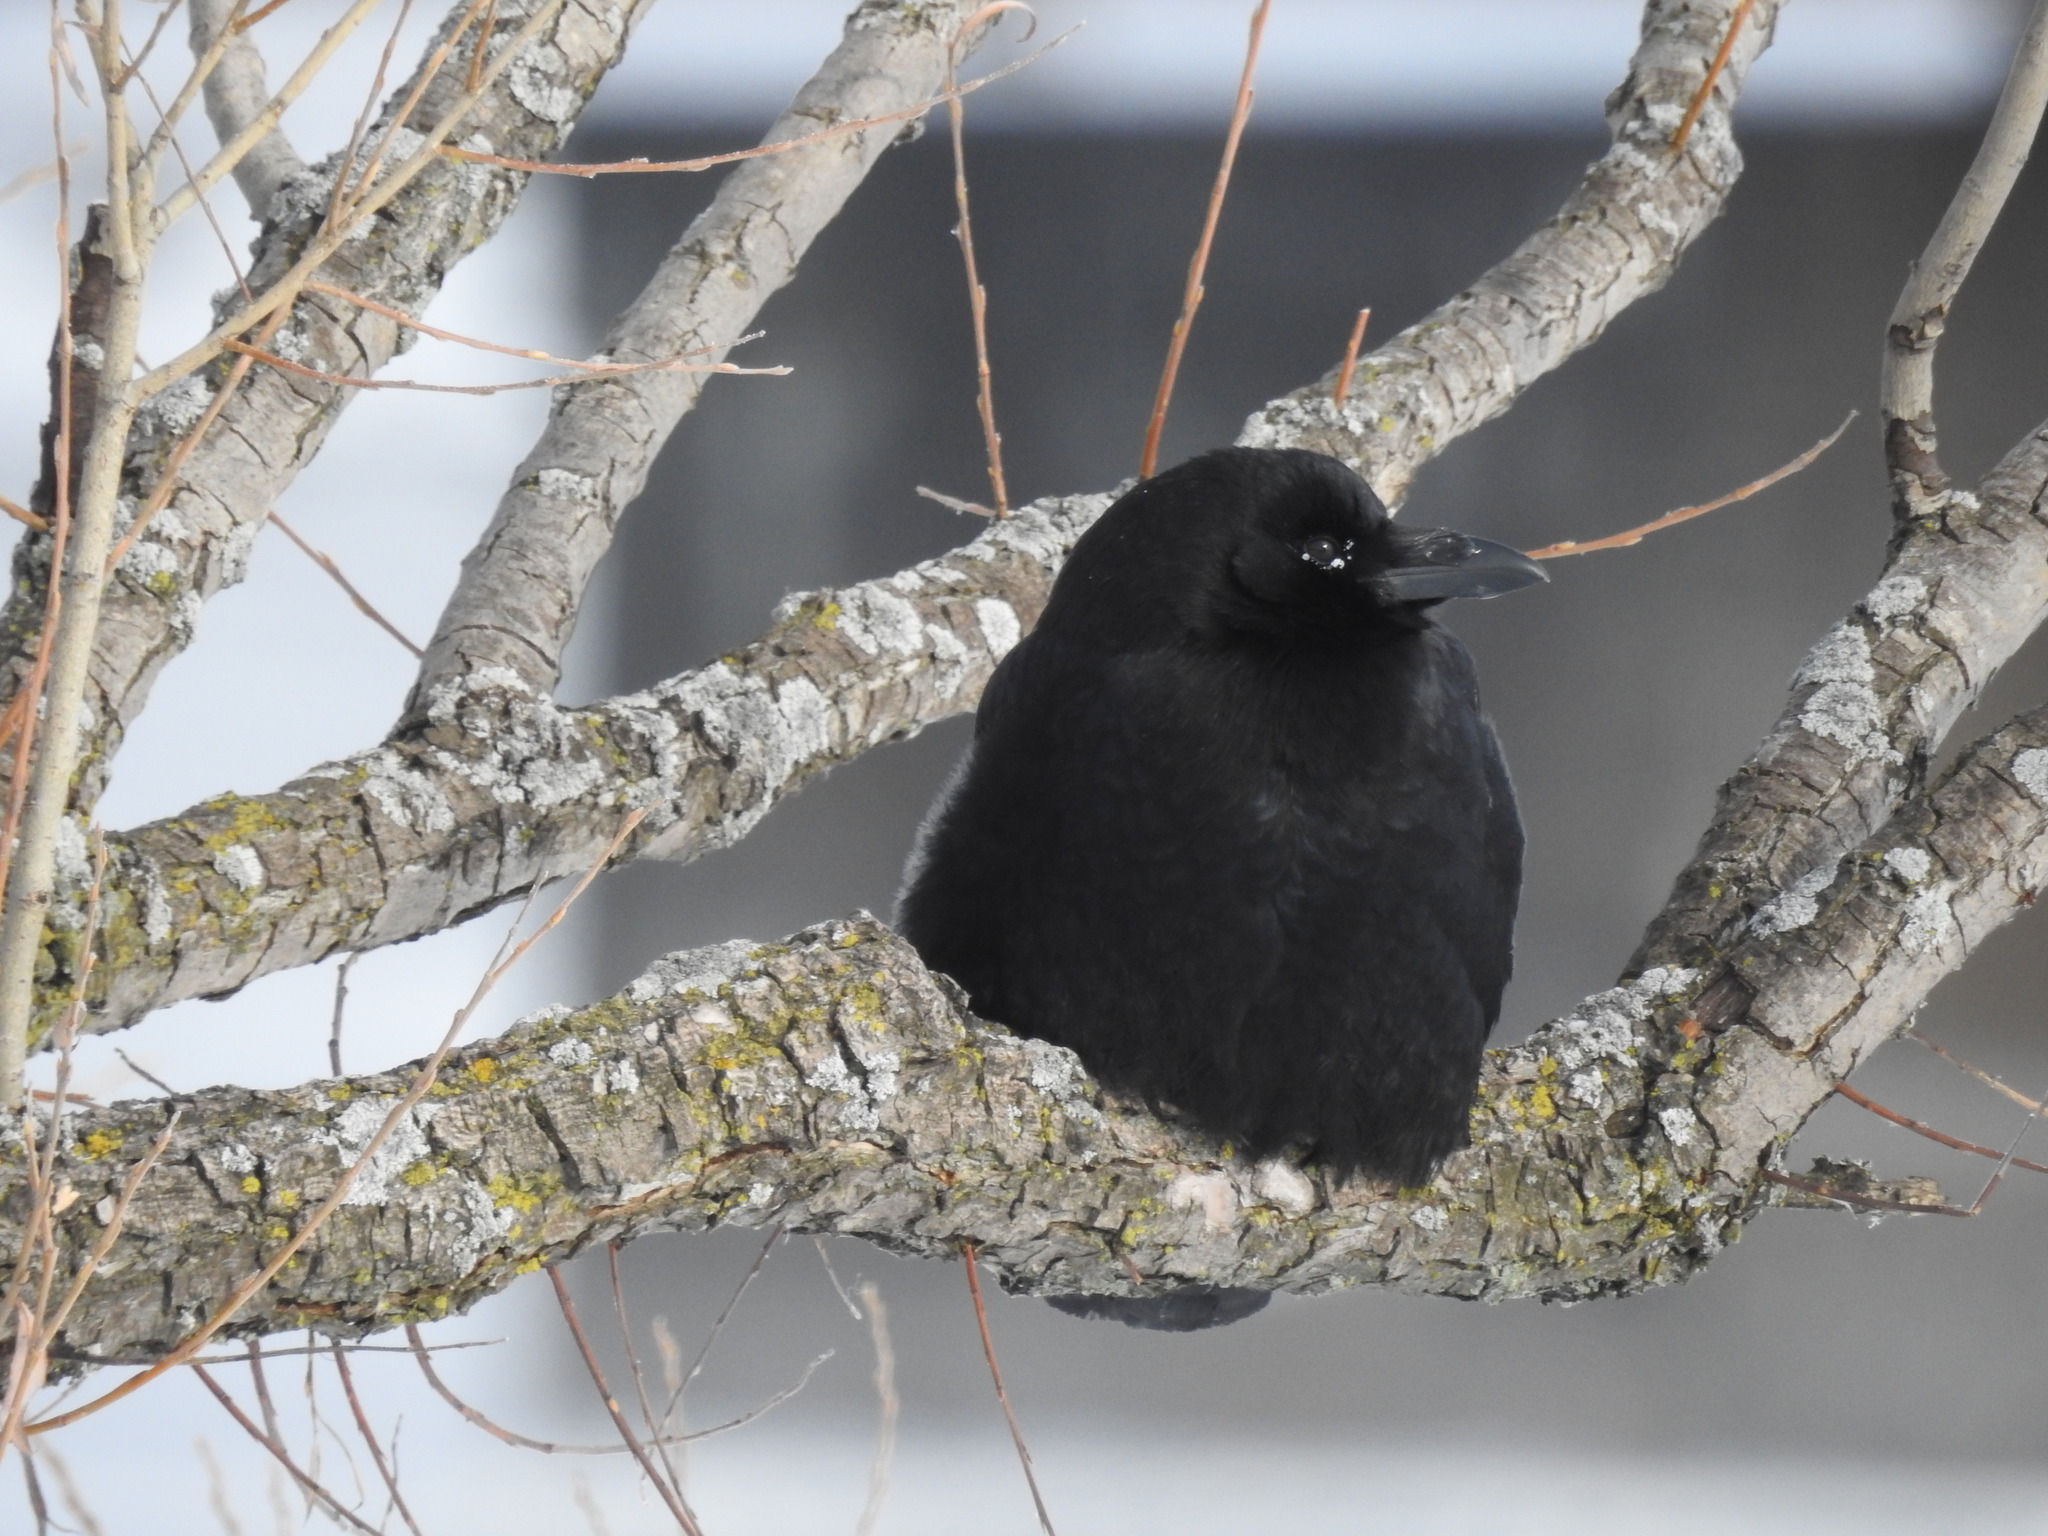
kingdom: Animalia
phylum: Chordata
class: Aves
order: Passeriformes
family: Corvidae
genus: Corvus
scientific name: Corvus brachyrhynchos
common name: American crow
